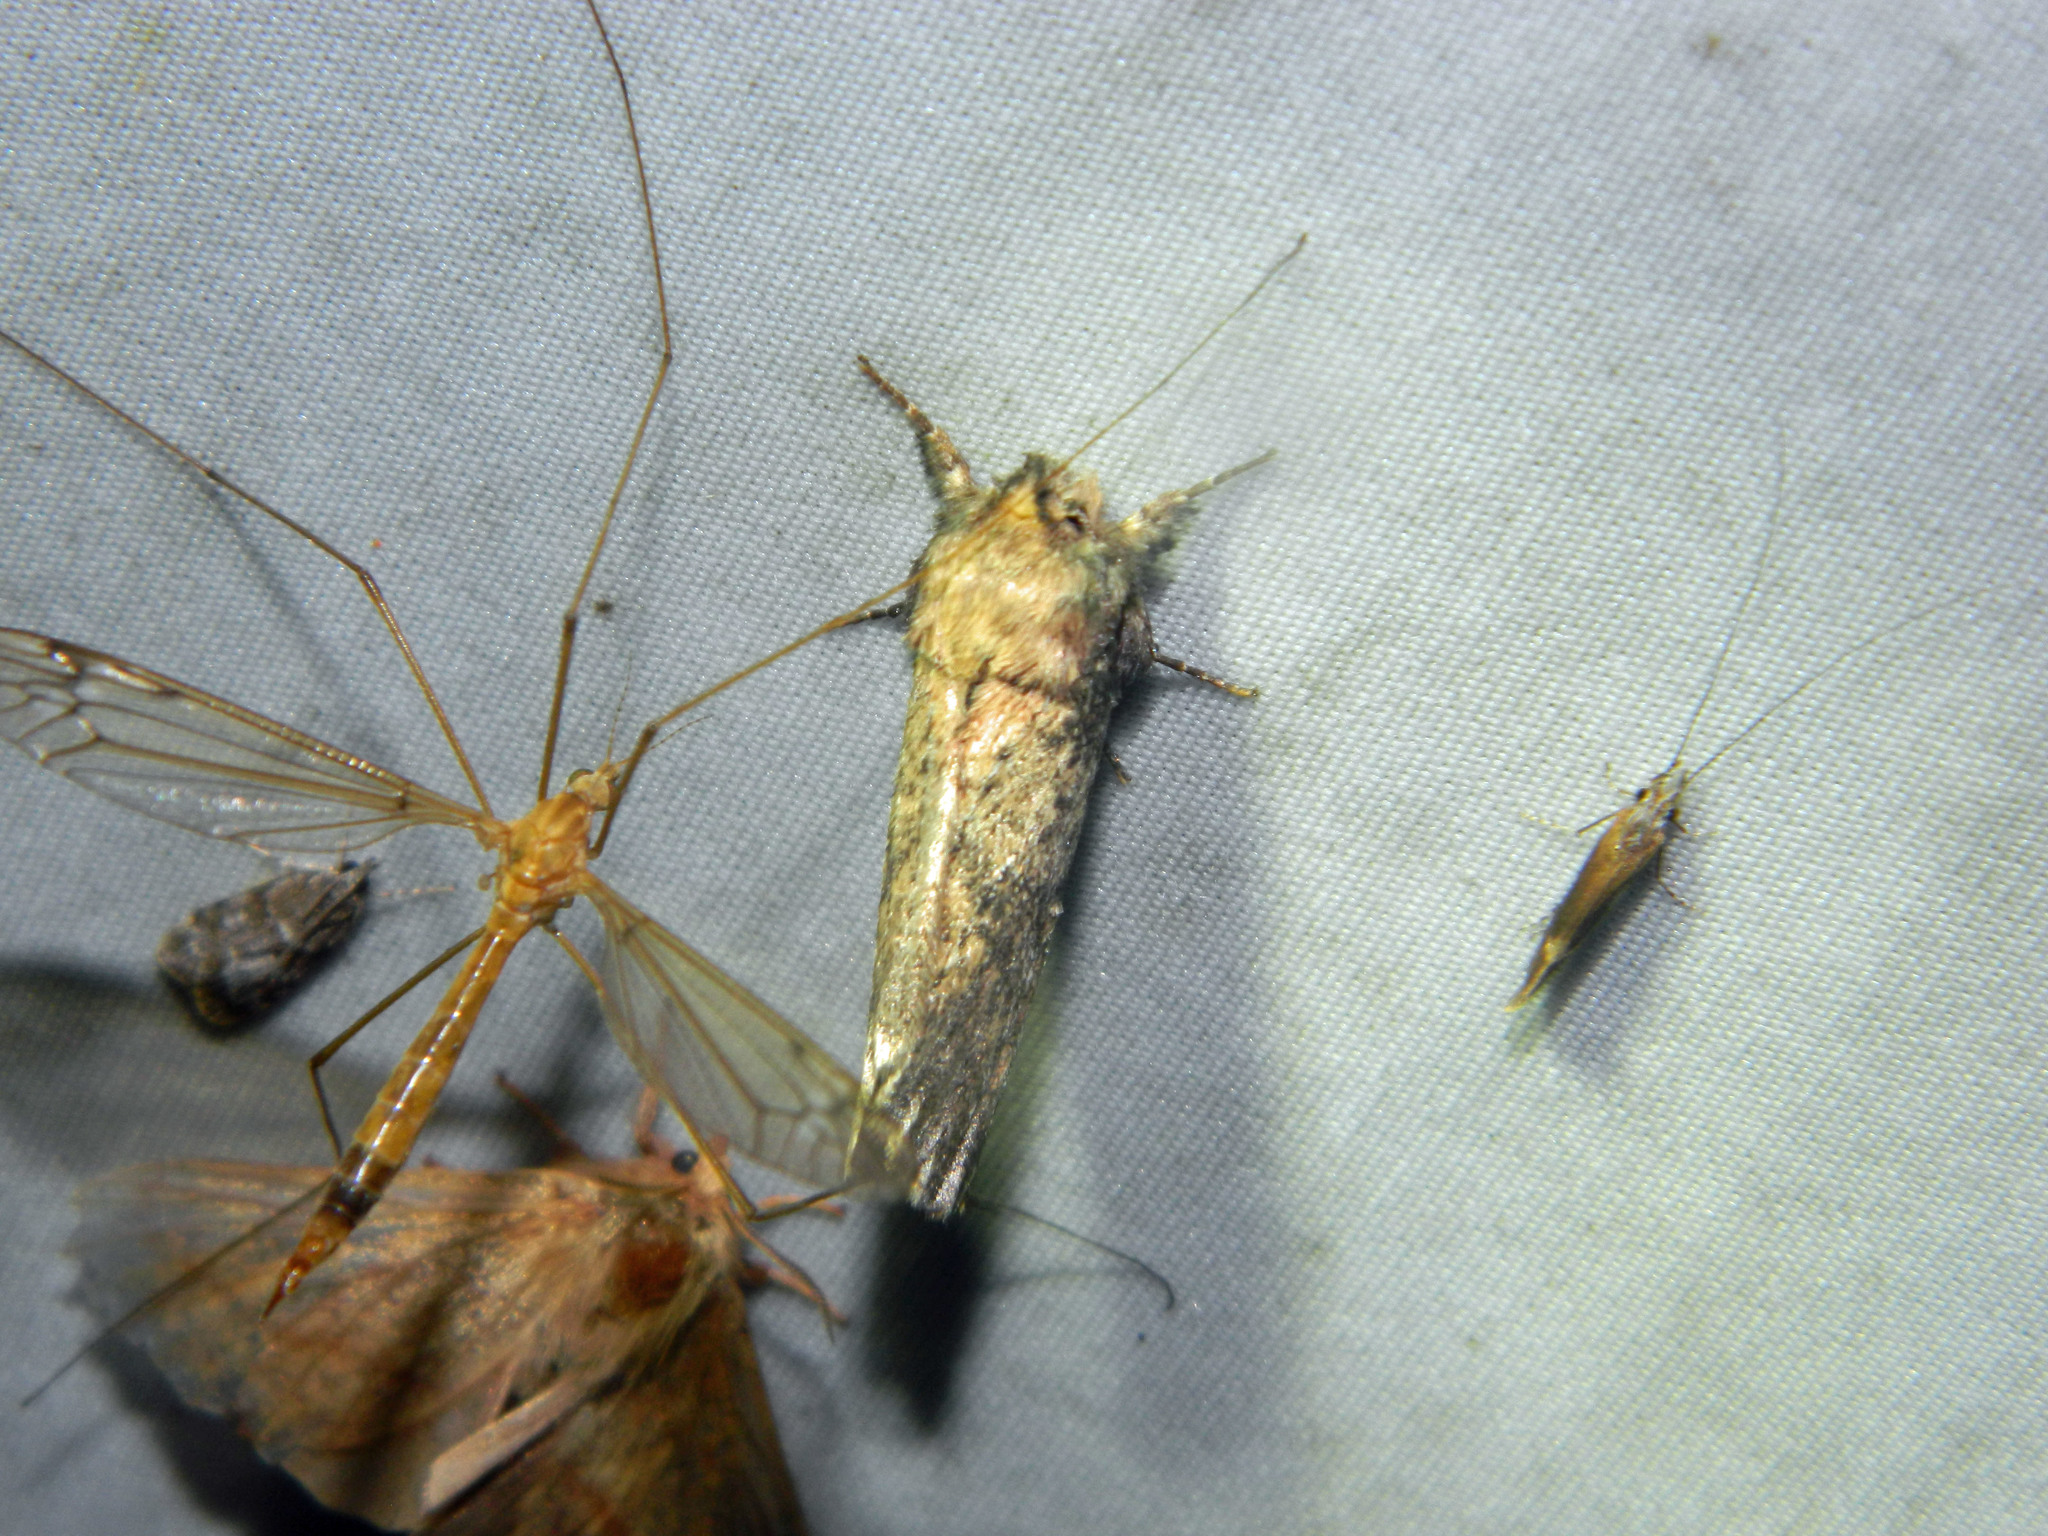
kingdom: Animalia
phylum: Arthropoda
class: Insecta
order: Lepidoptera
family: Notodontidae
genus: Schizura
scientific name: Schizura ipomaeae
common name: Morning-glory prominent
